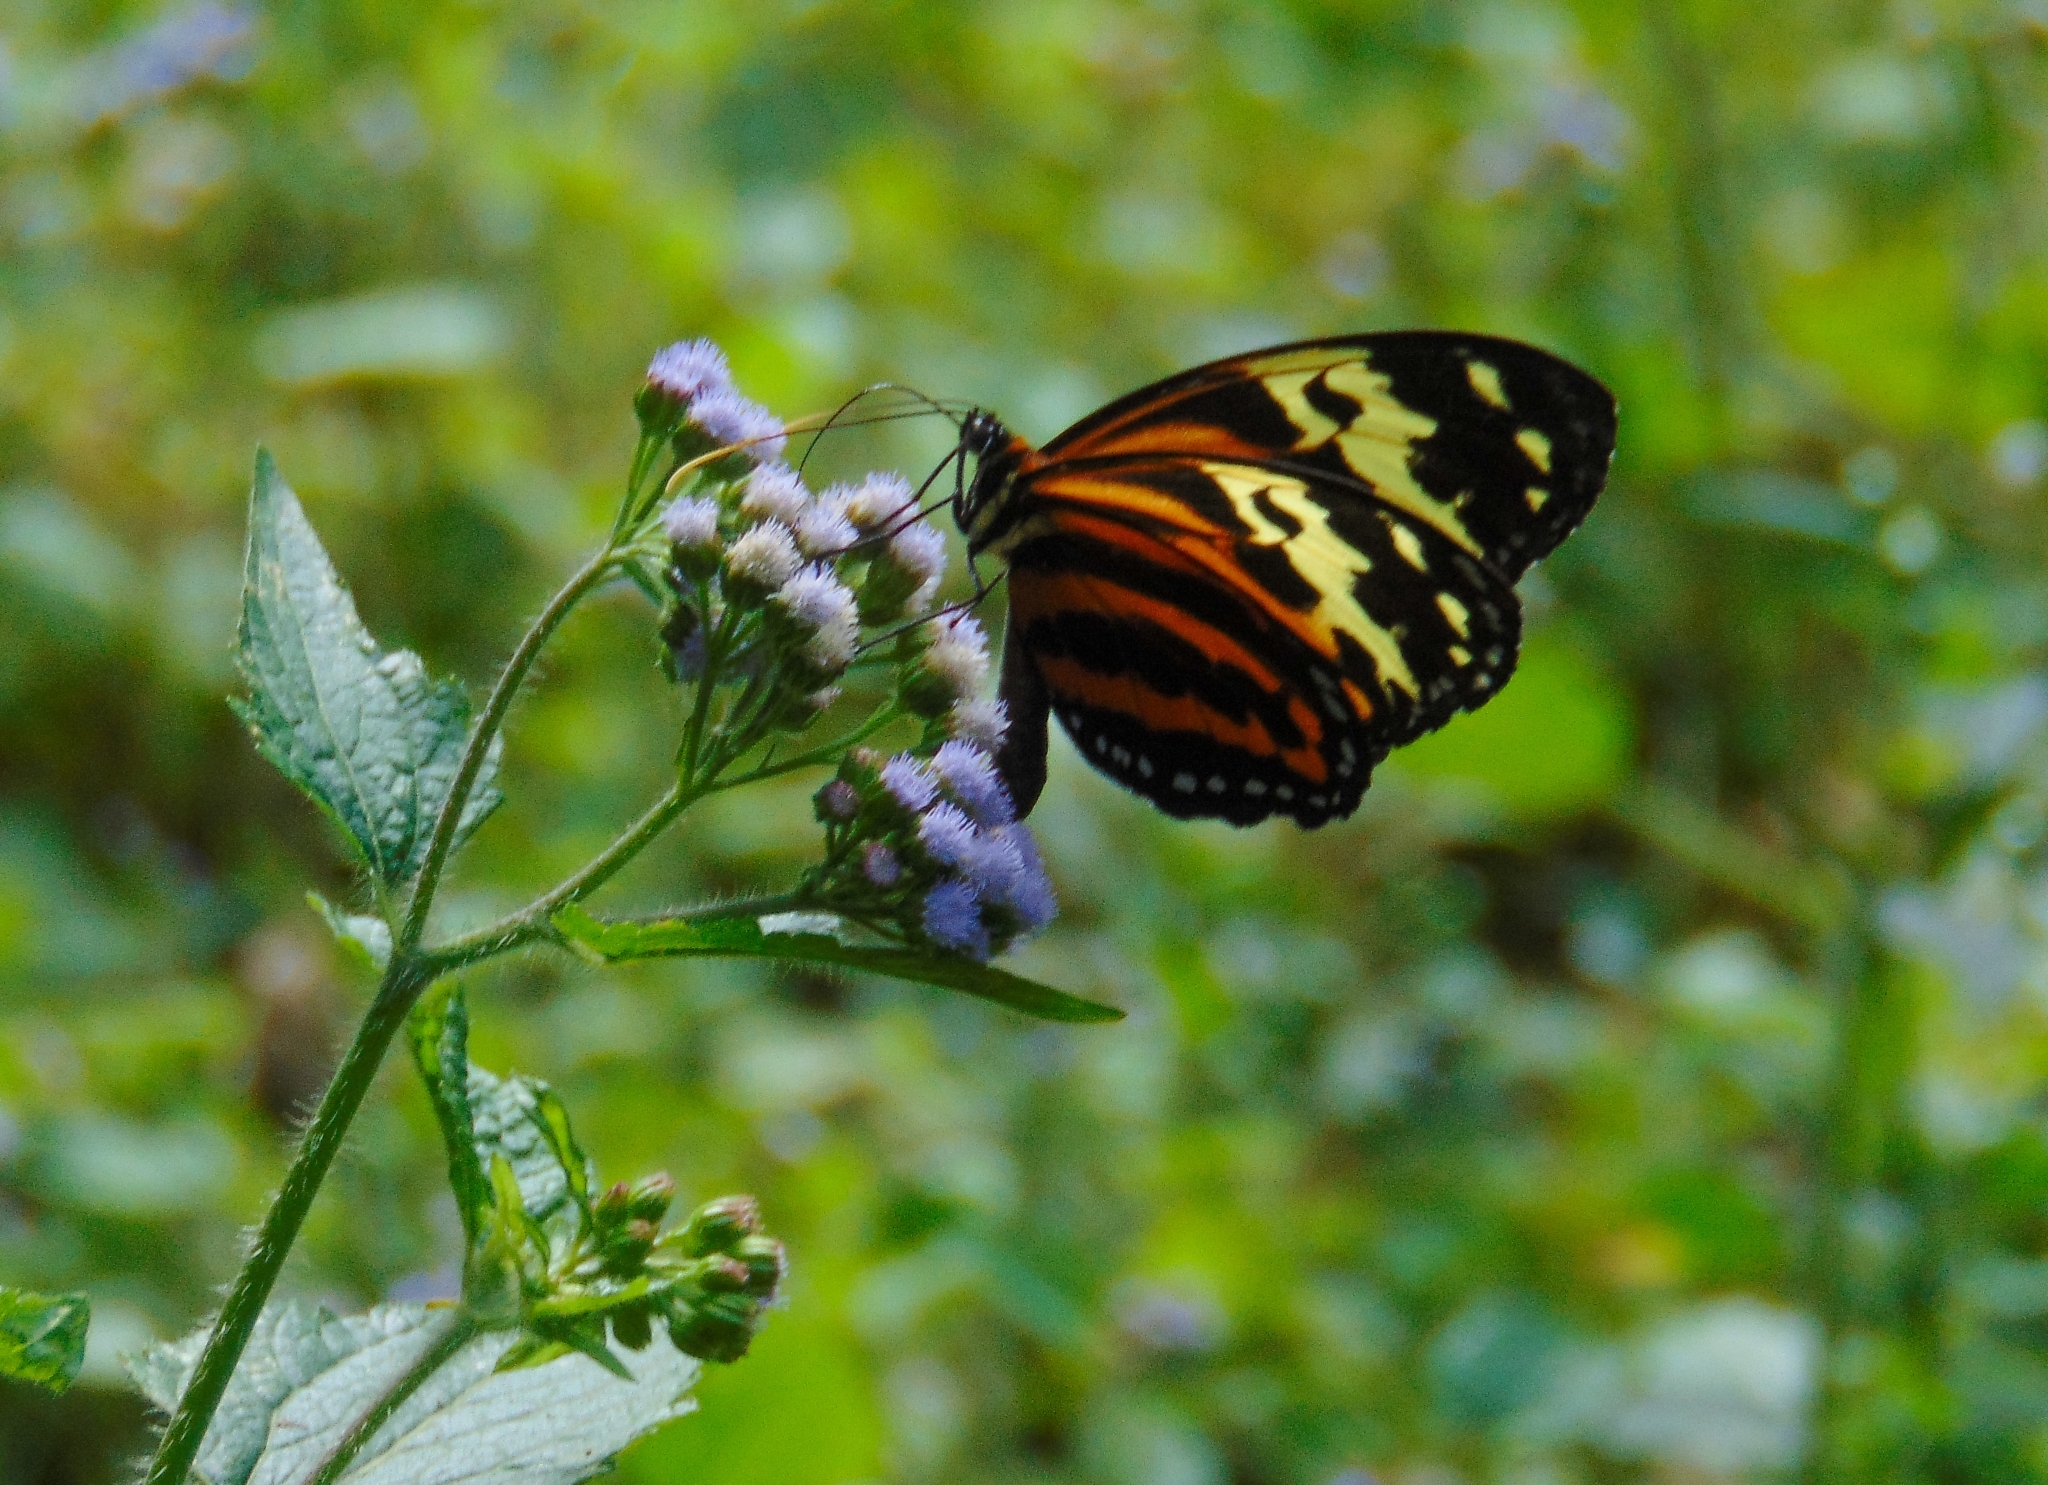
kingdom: Animalia
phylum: Arthropoda
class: Insecta
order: Lepidoptera
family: Nymphalidae
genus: Tithorea
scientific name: Tithorea harmonia
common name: Harmonia tigerwing
